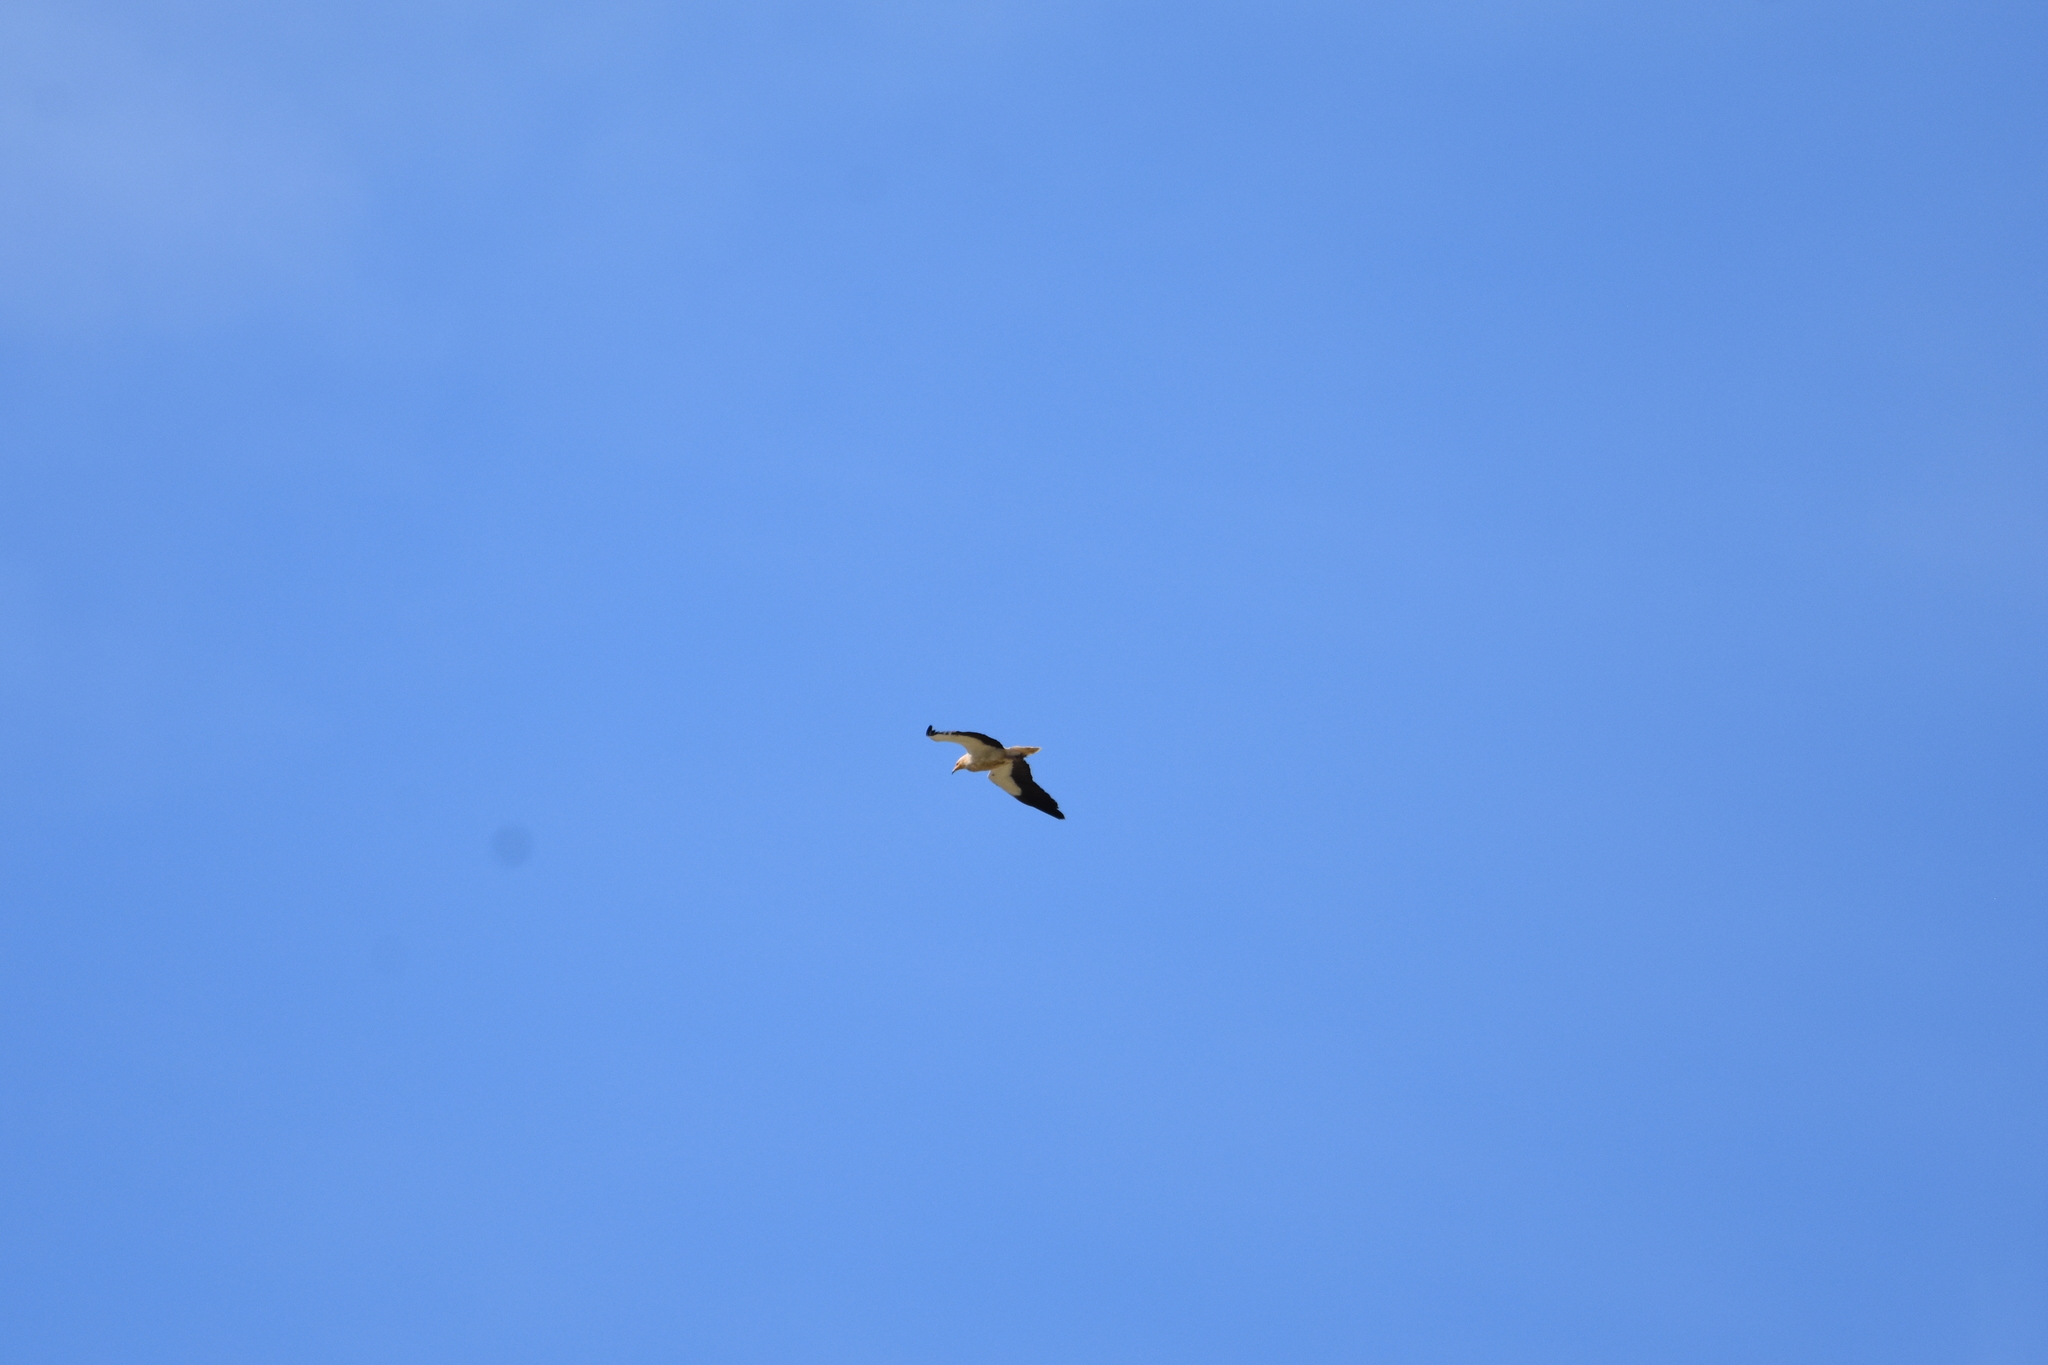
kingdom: Animalia
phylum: Chordata
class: Aves
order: Accipitriformes
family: Accipitridae
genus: Neophron
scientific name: Neophron percnopterus
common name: Egyptian vulture
